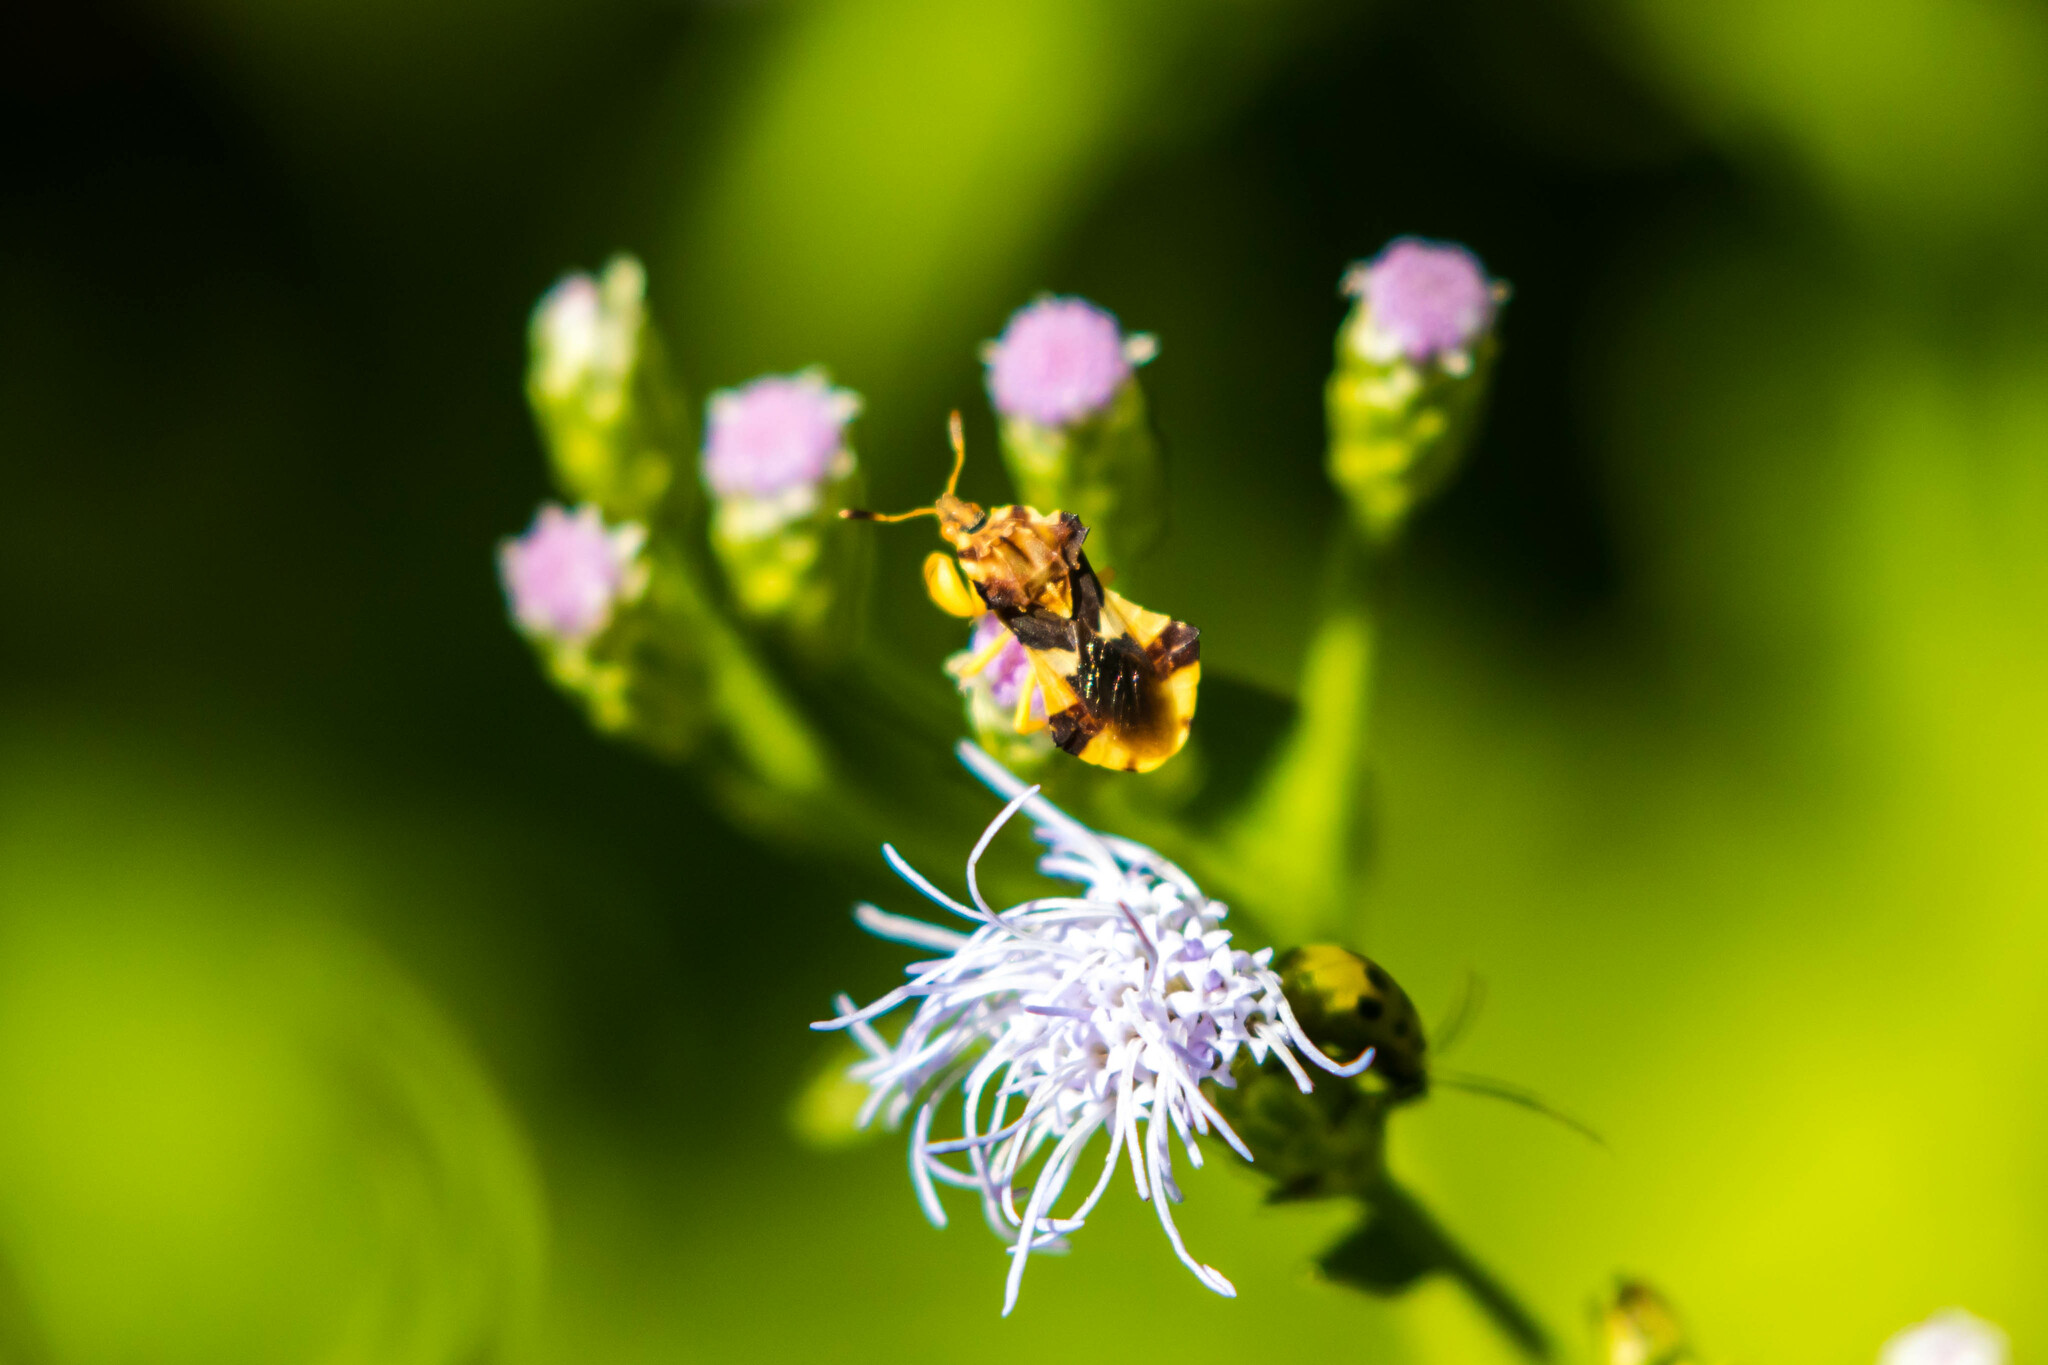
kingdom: Animalia
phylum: Arthropoda
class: Insecta
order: Hemiptera
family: Reduviidae
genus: Phymata
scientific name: Phymata americana
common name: Jagged ambush bug
